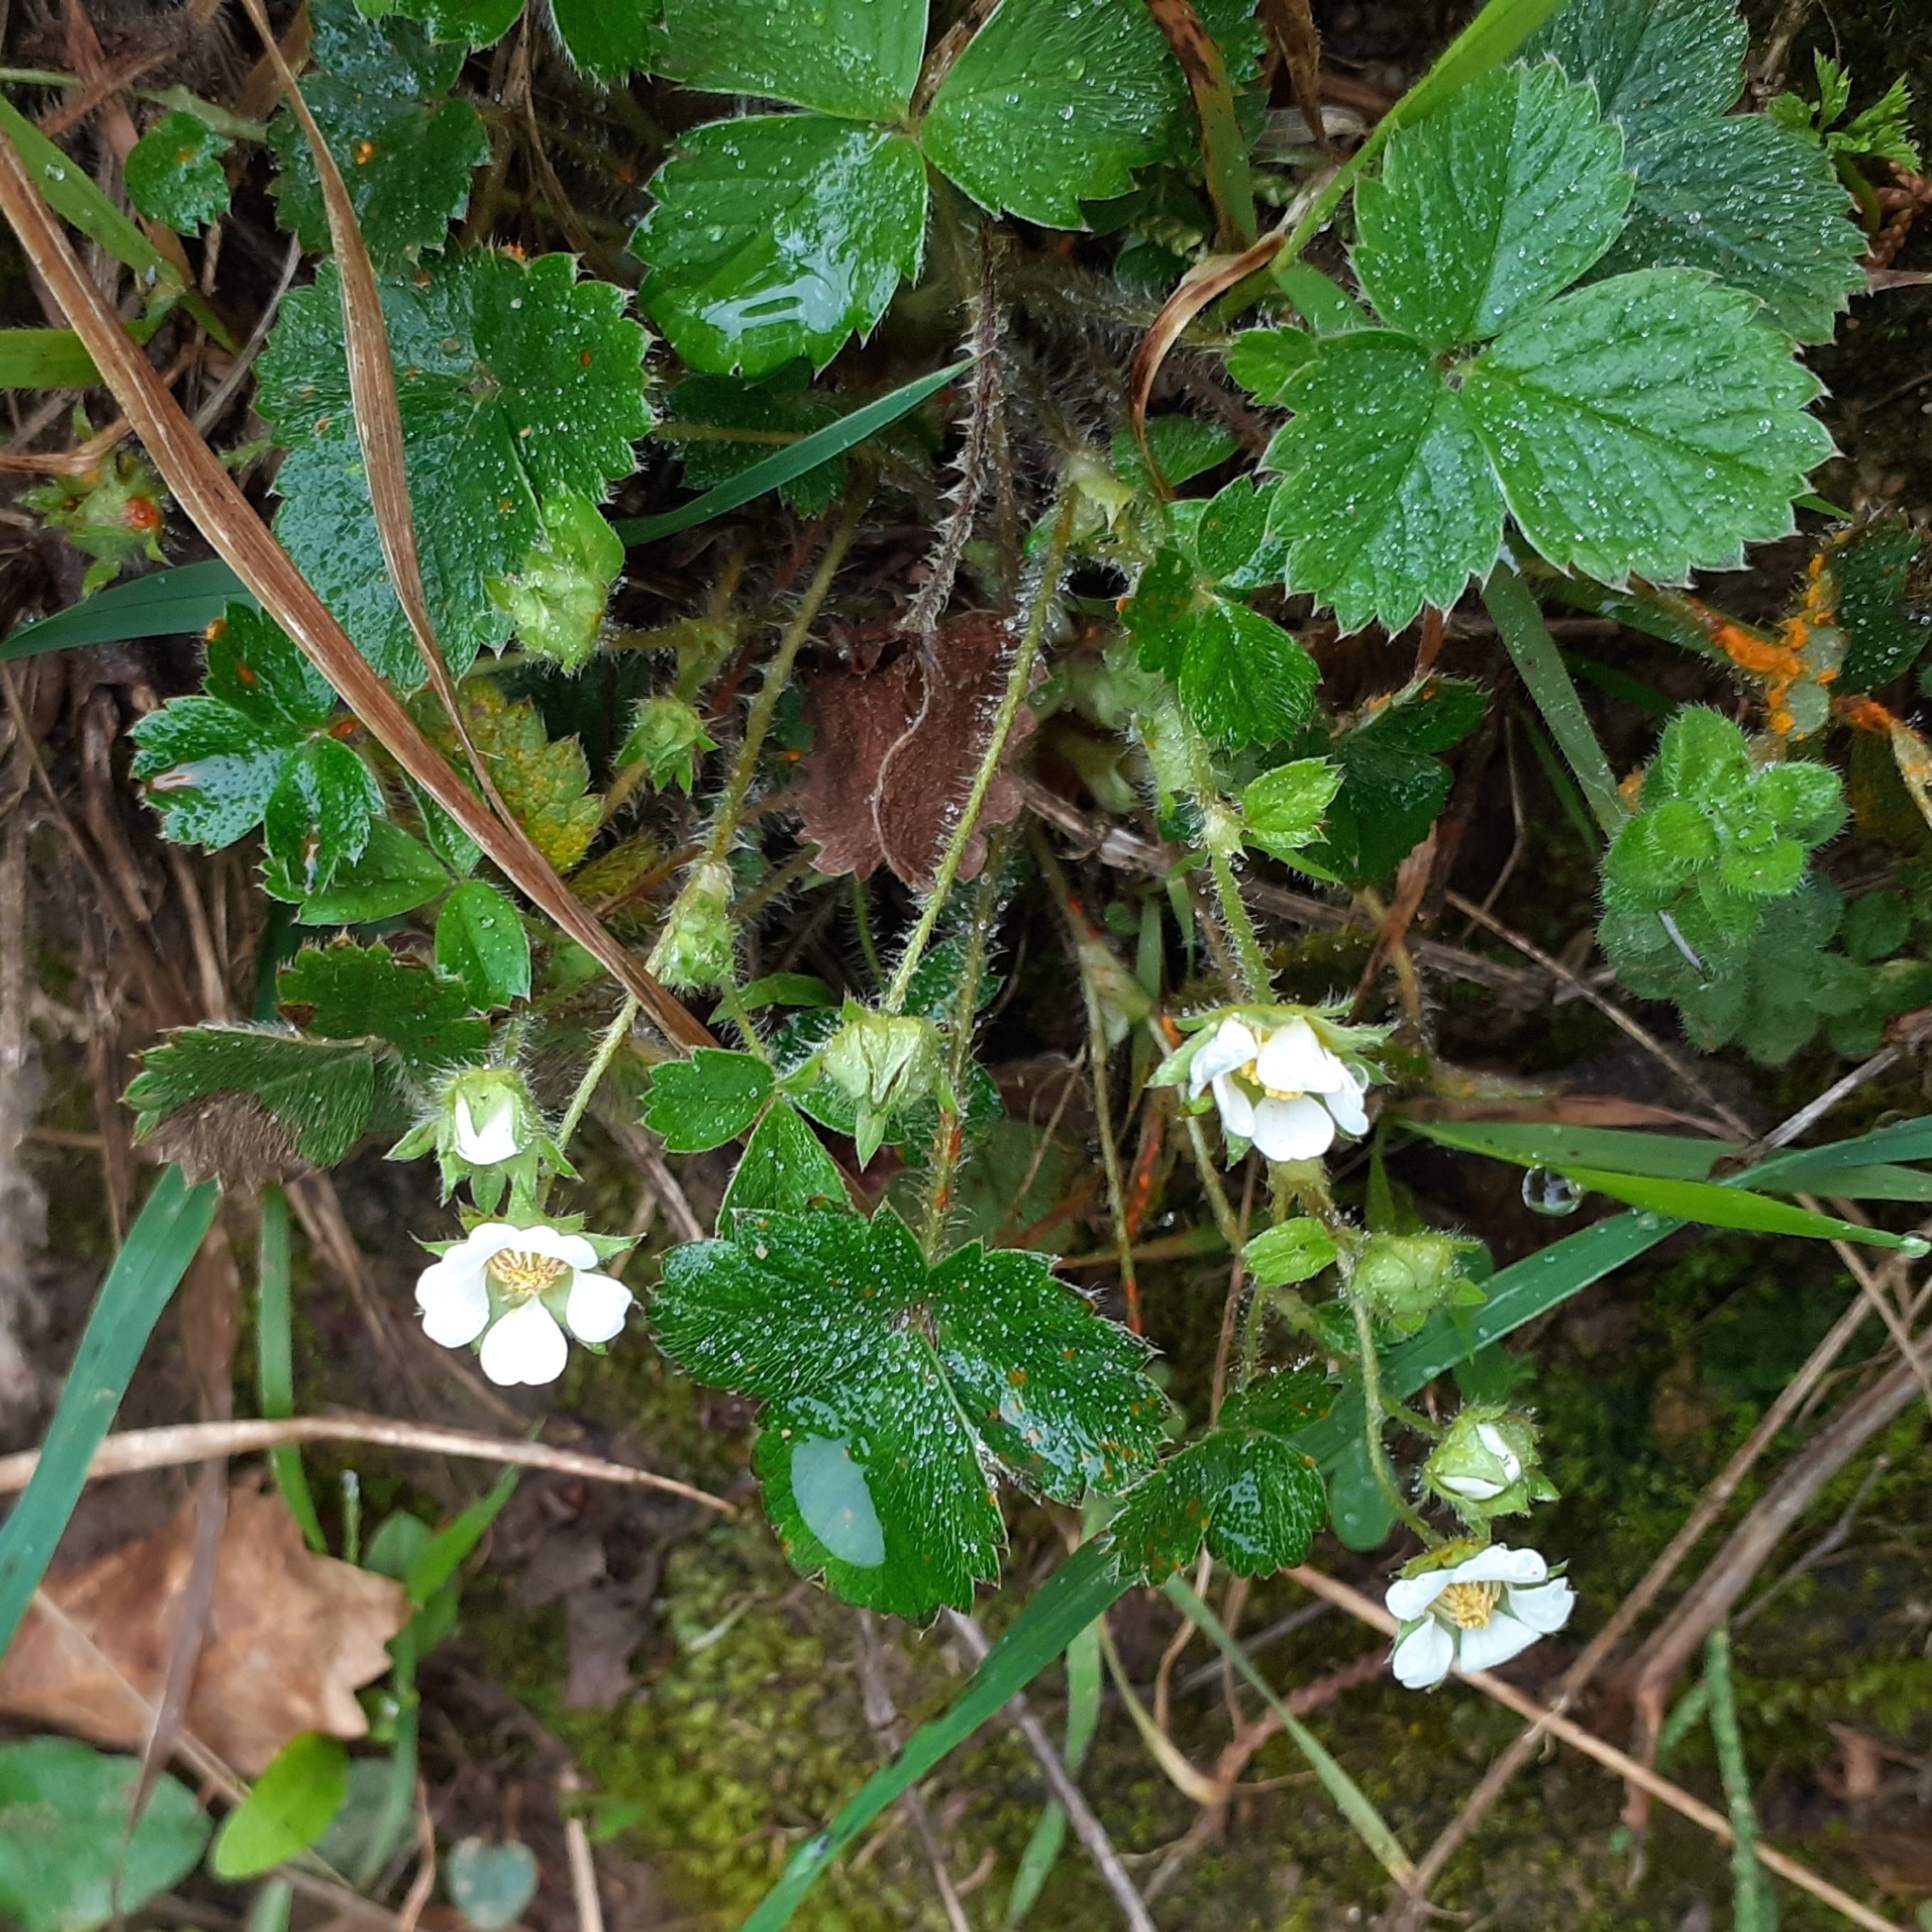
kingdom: Plantae
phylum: Tracheophyta
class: Magnoliopsida
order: Rosales
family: Rosaceae
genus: Potentilla
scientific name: Potentilla sterilis
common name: Barren strawberry
